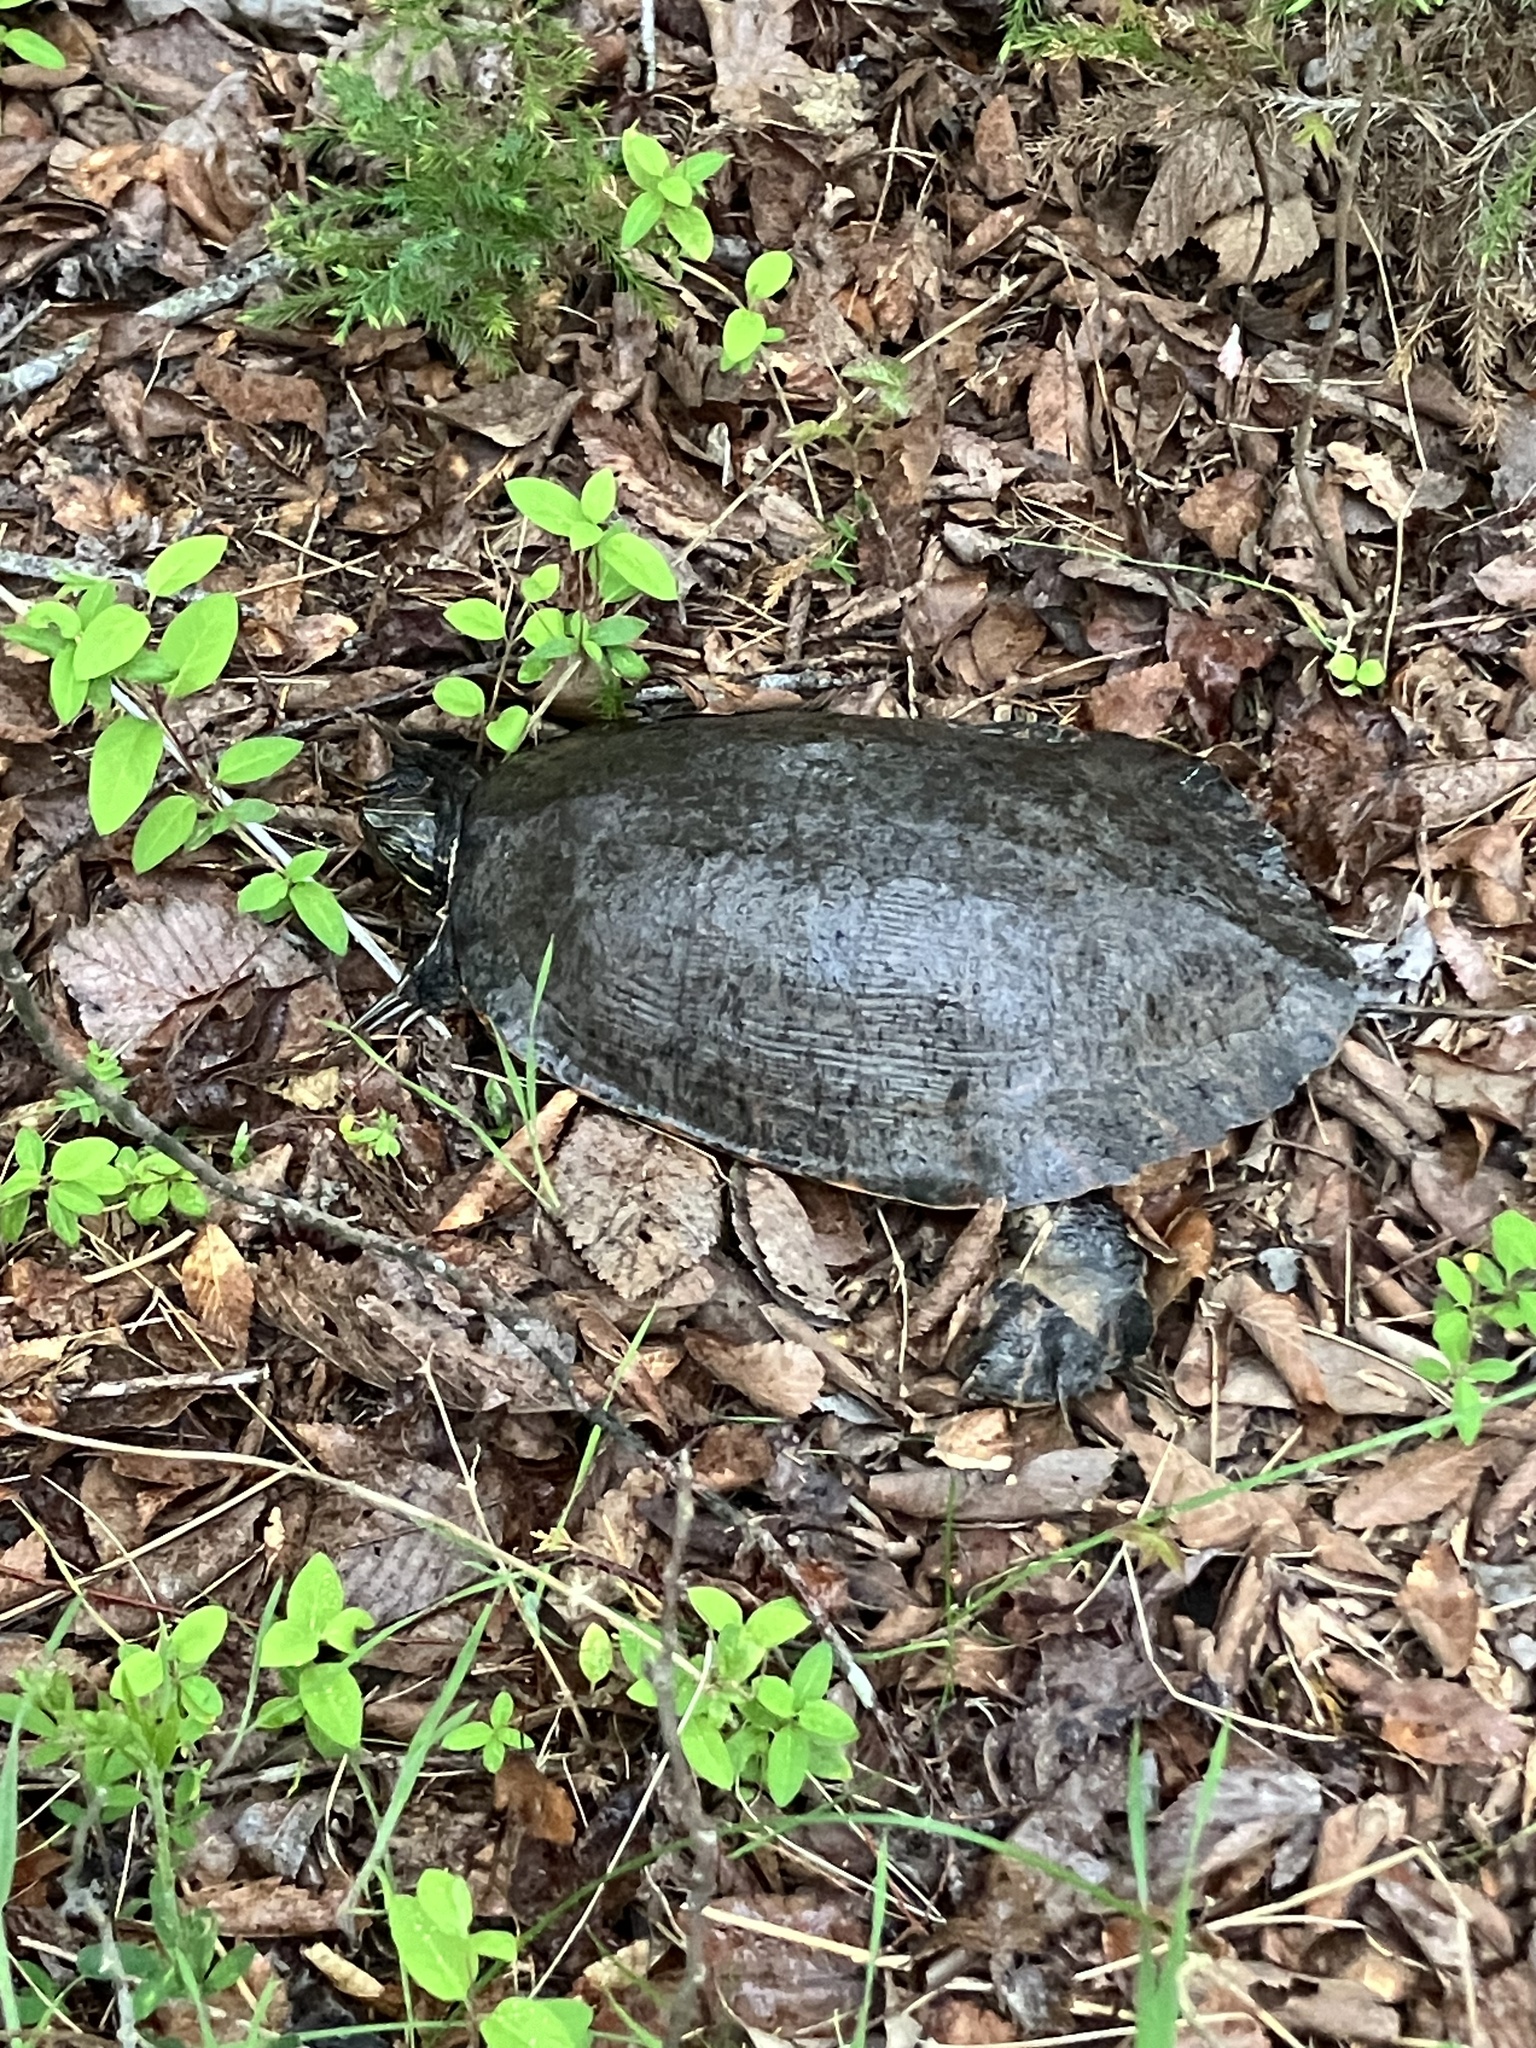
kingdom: Animalia
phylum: Chordata
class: Testudines
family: Emydidae
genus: Pseudemys
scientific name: Pseudemys concinna
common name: Eastern river cooter
